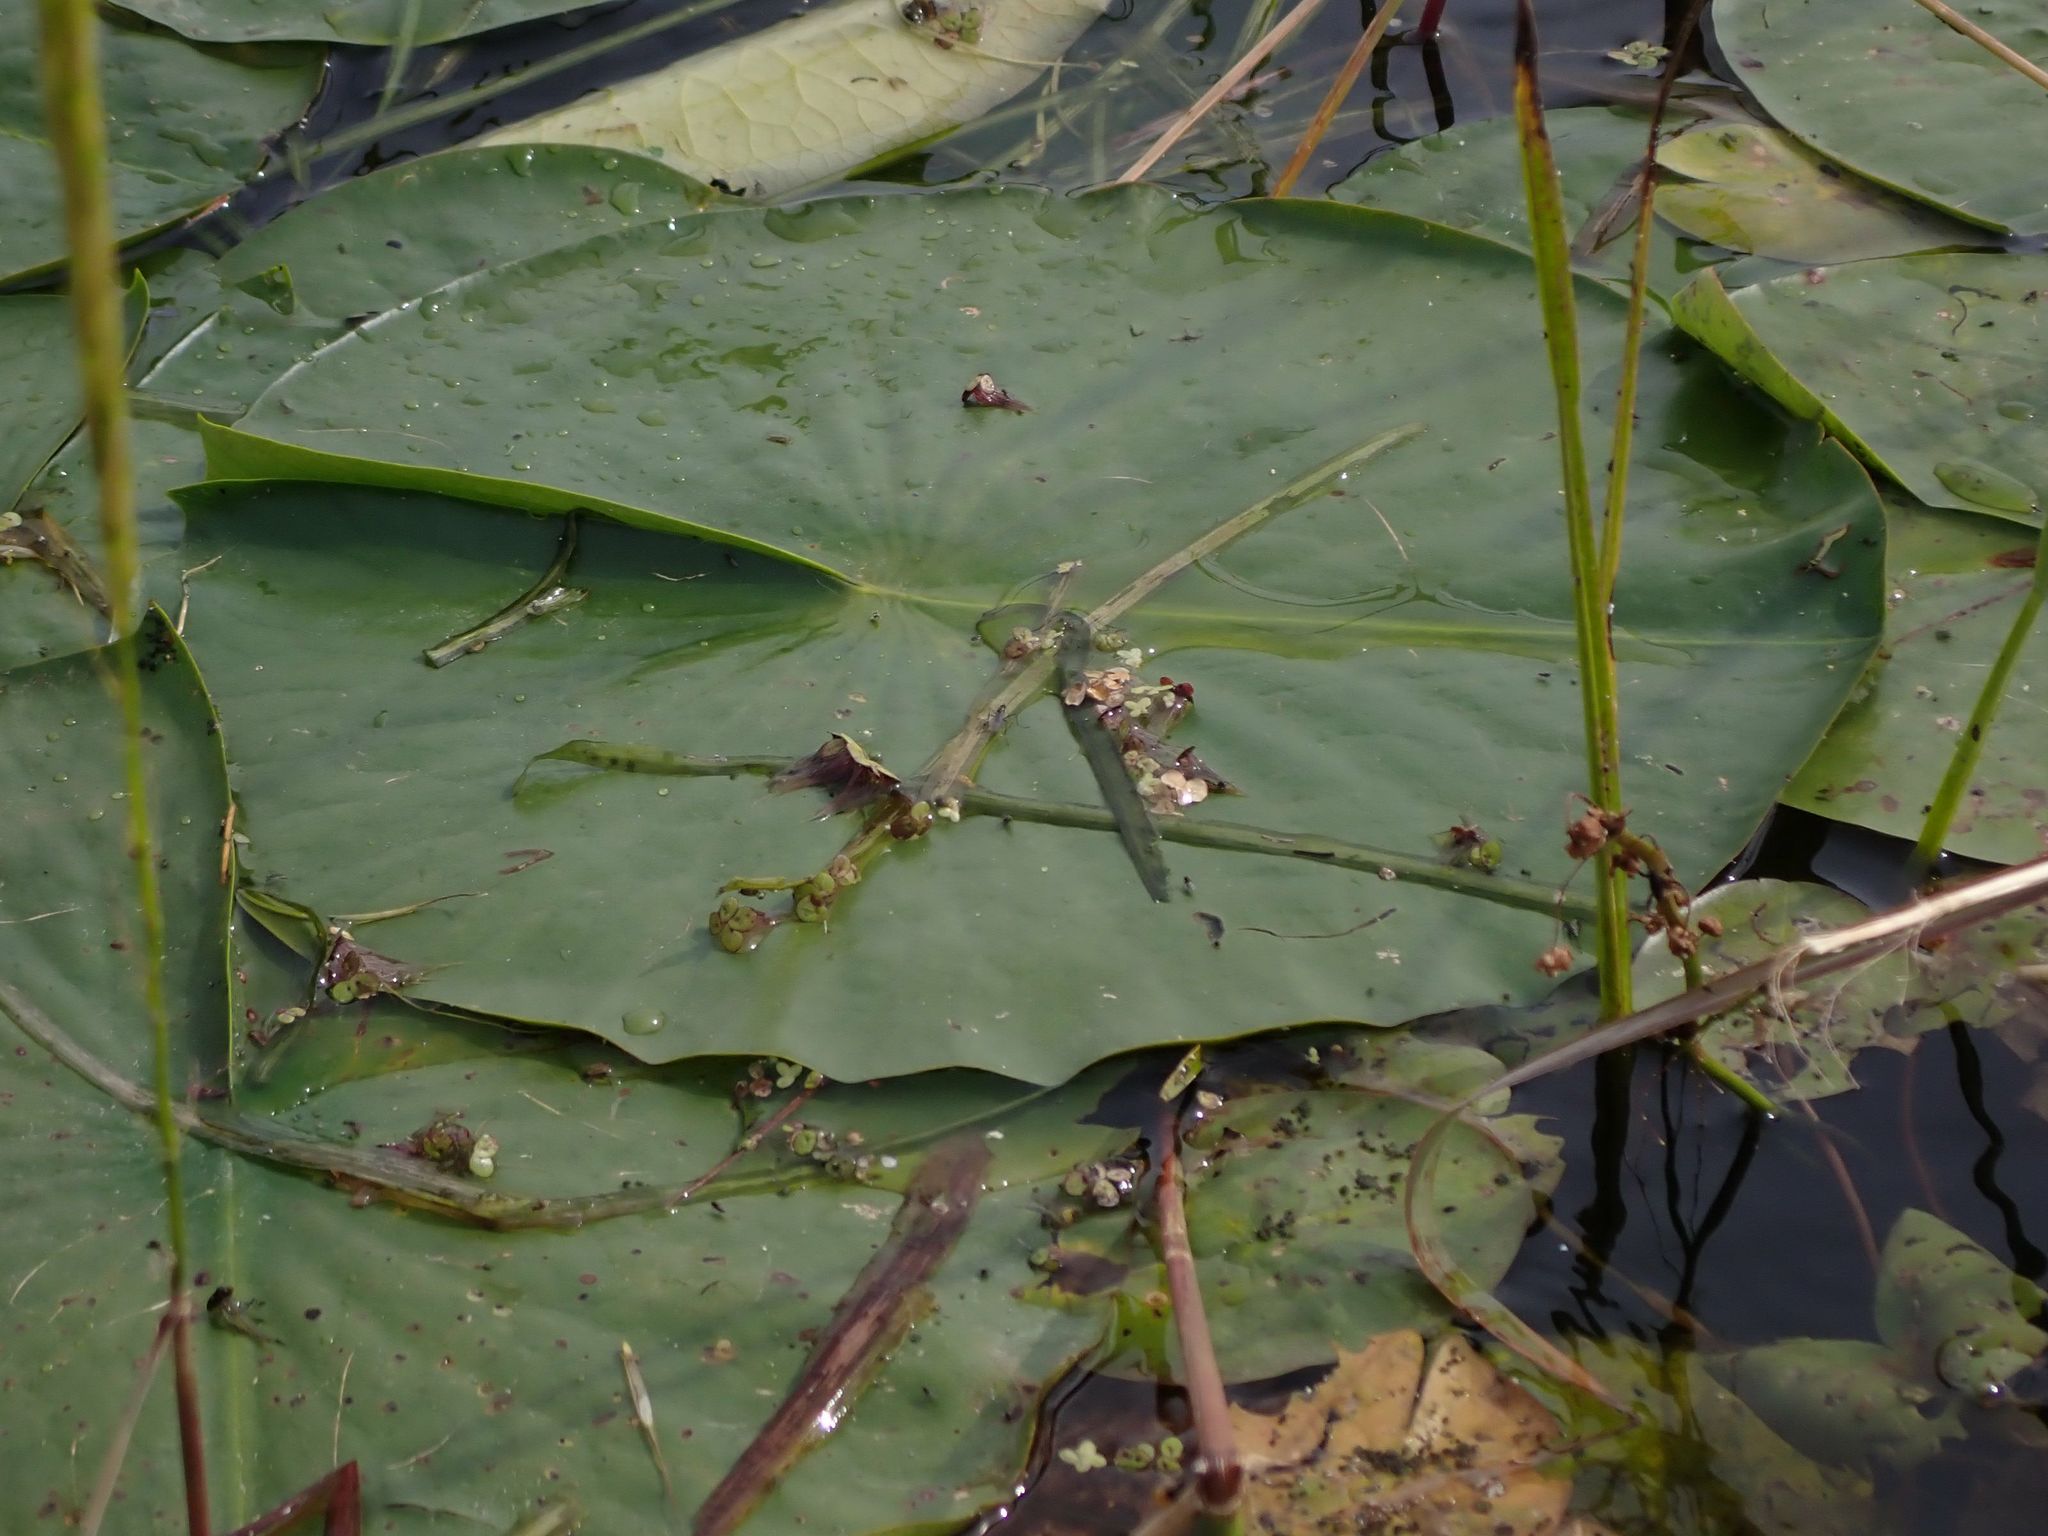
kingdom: Plantae
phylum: Tracheophyta
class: Magnoliopsida
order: Nymphaeales
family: Nymphaeaceae
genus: Nymphaea
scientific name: Nymphaea odorata
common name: Fragrant water-lily
